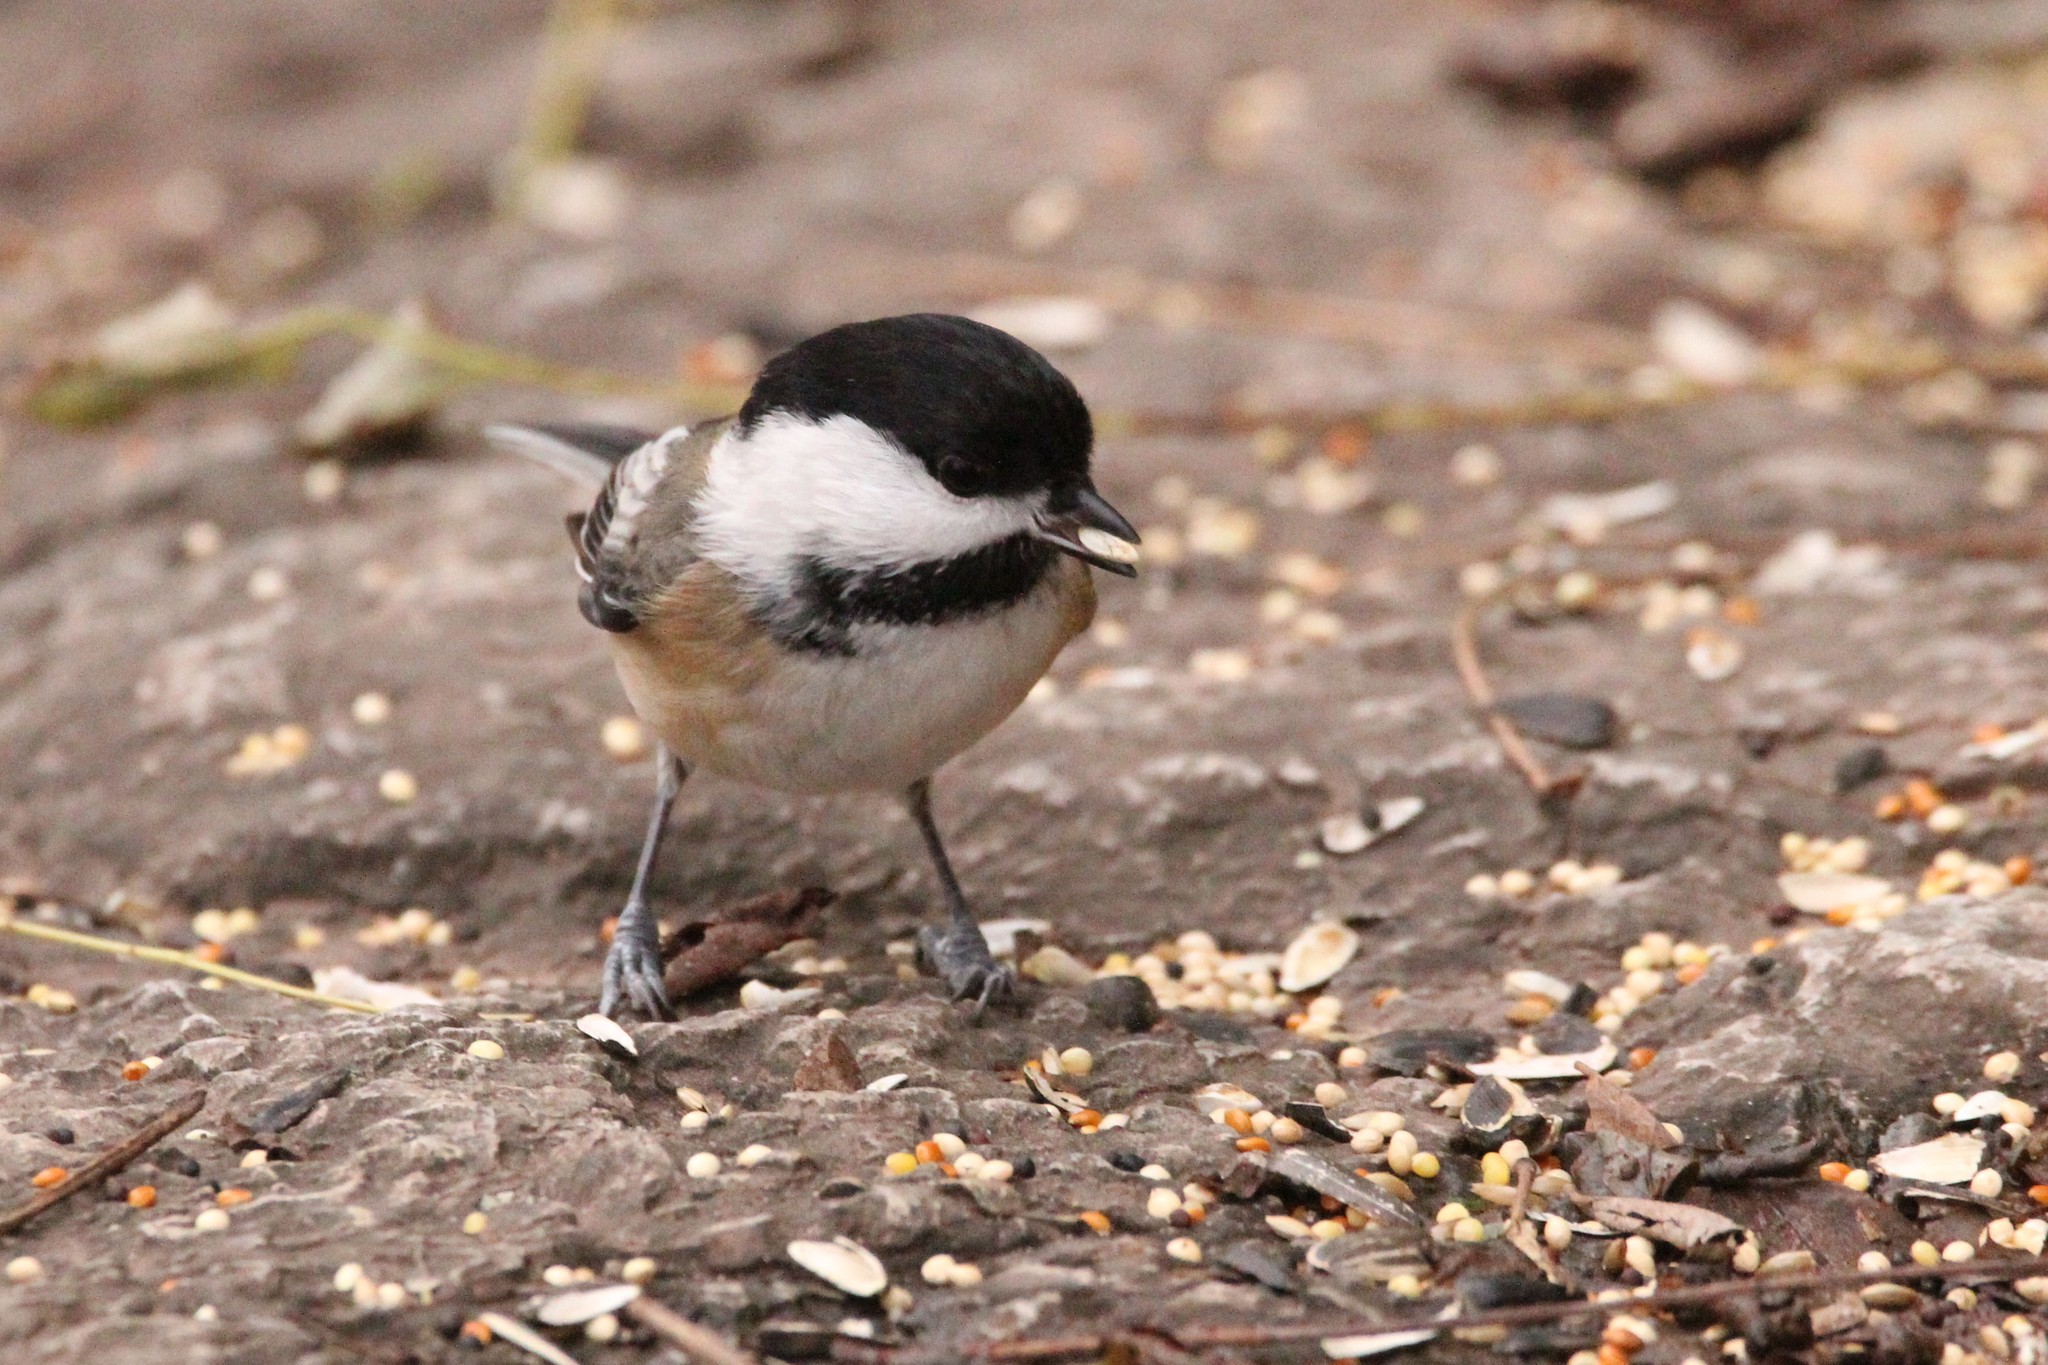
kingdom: Animalia
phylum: Chordata
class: Aves
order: Passeriformes
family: Paridae
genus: Poecile
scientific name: Poecile atricapillus
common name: Black-capped chickadee
